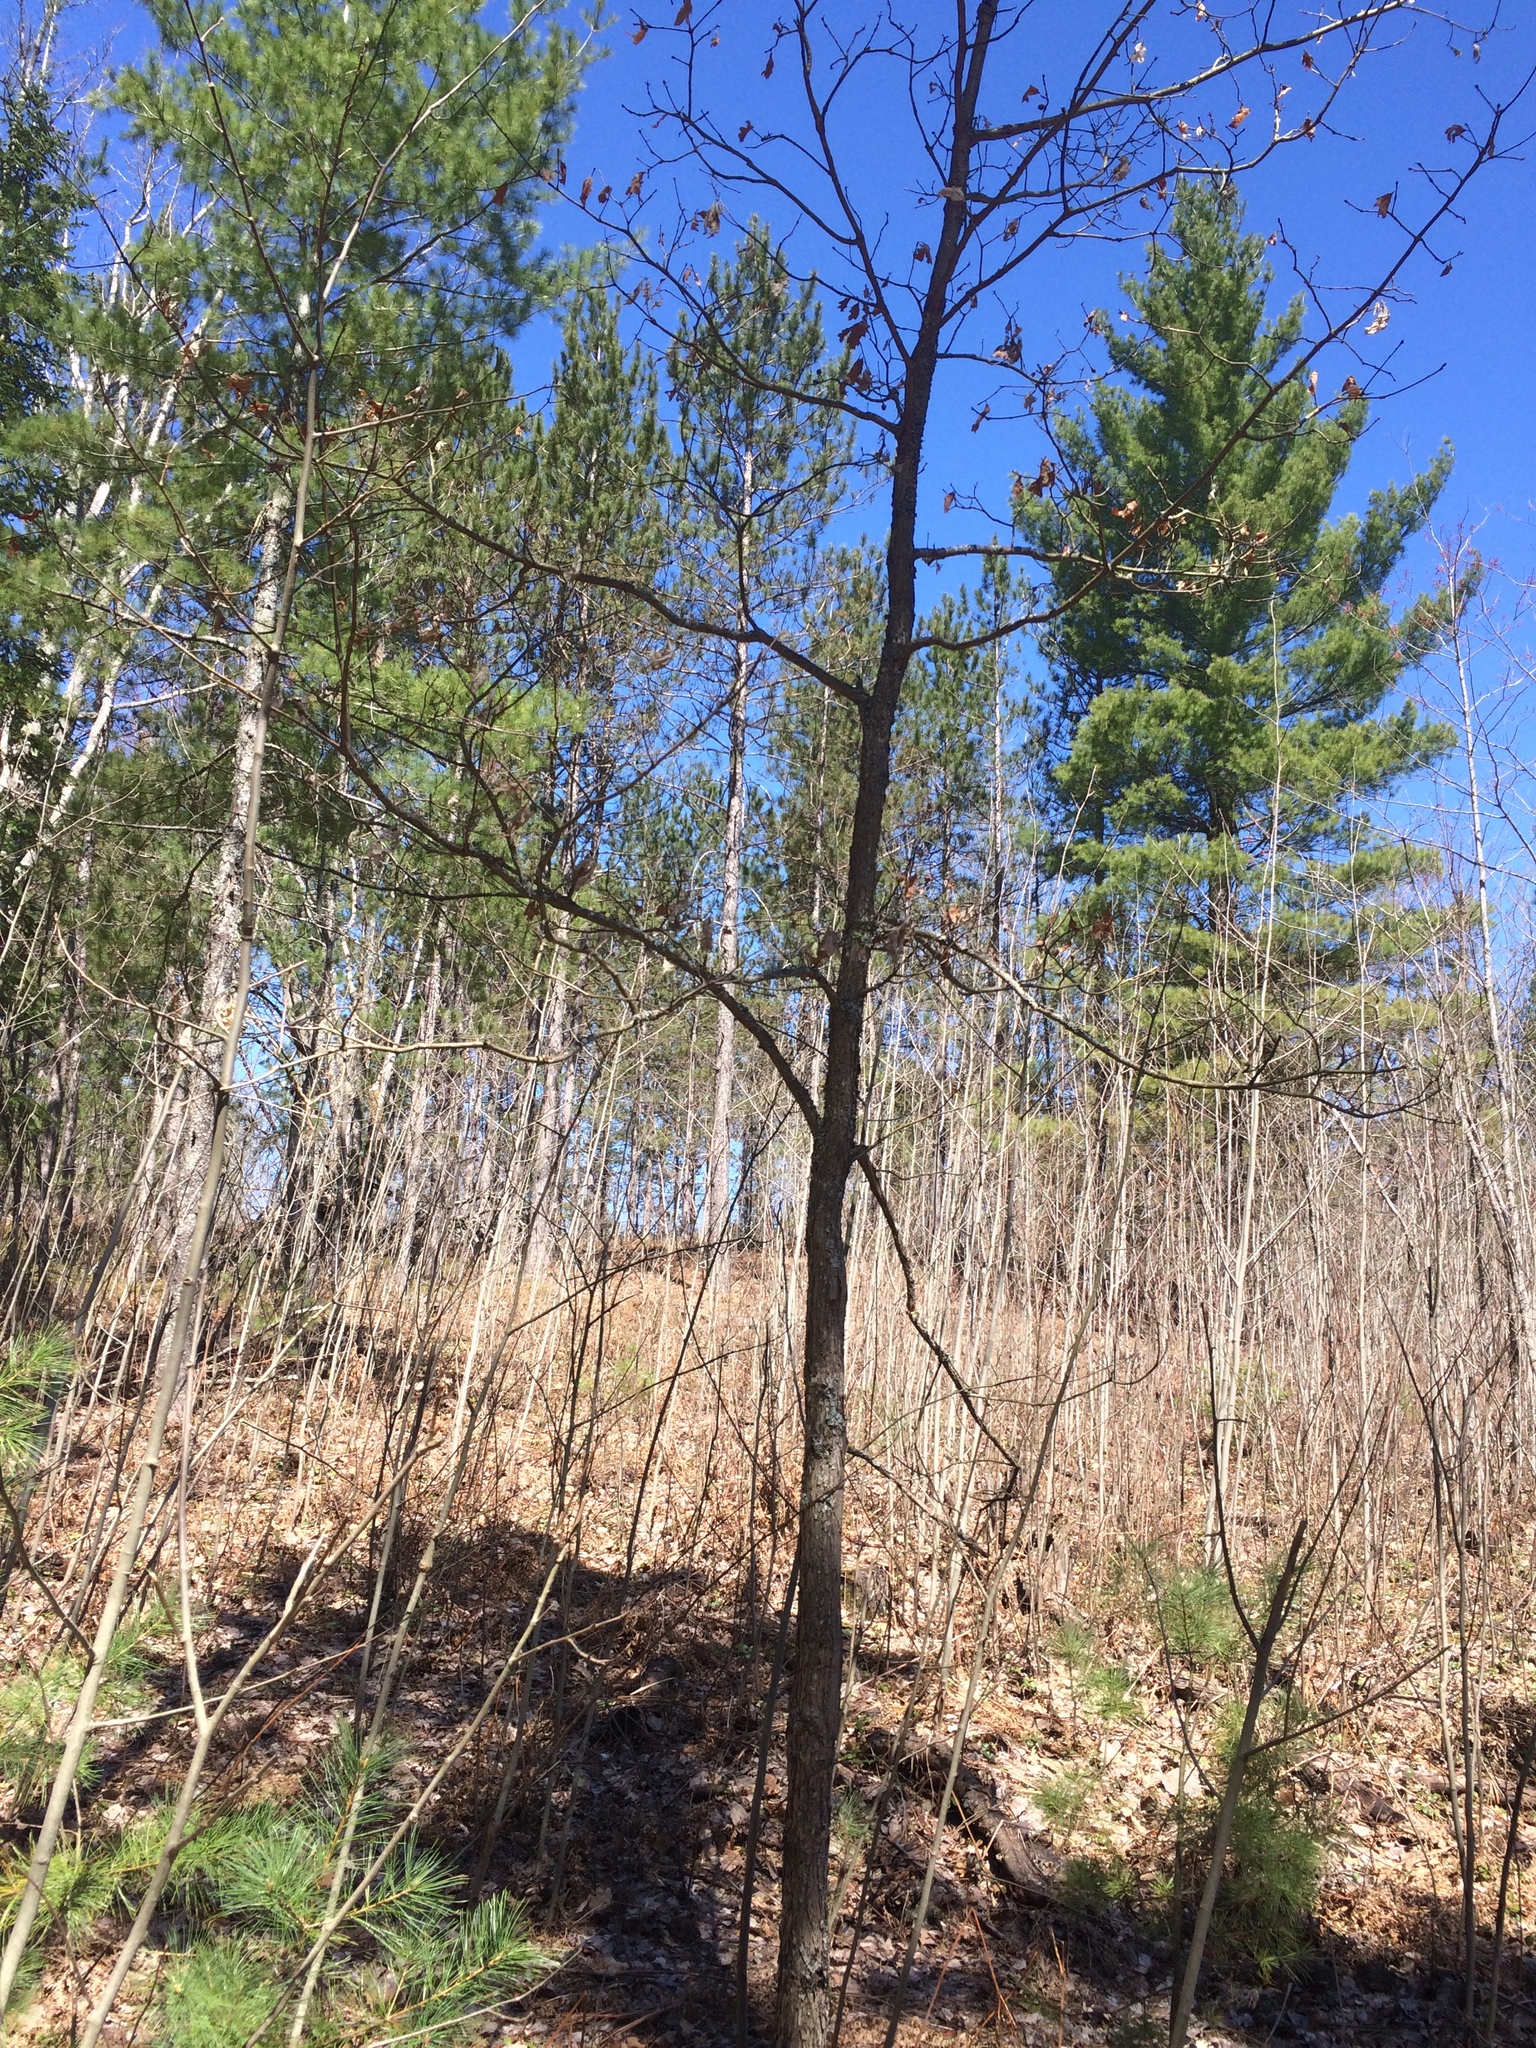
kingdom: Plantae
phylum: Tracheophyta
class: Magnoliopsida
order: Fagales
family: Fagaceae
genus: Quercus
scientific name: Quercus alba
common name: White oak
